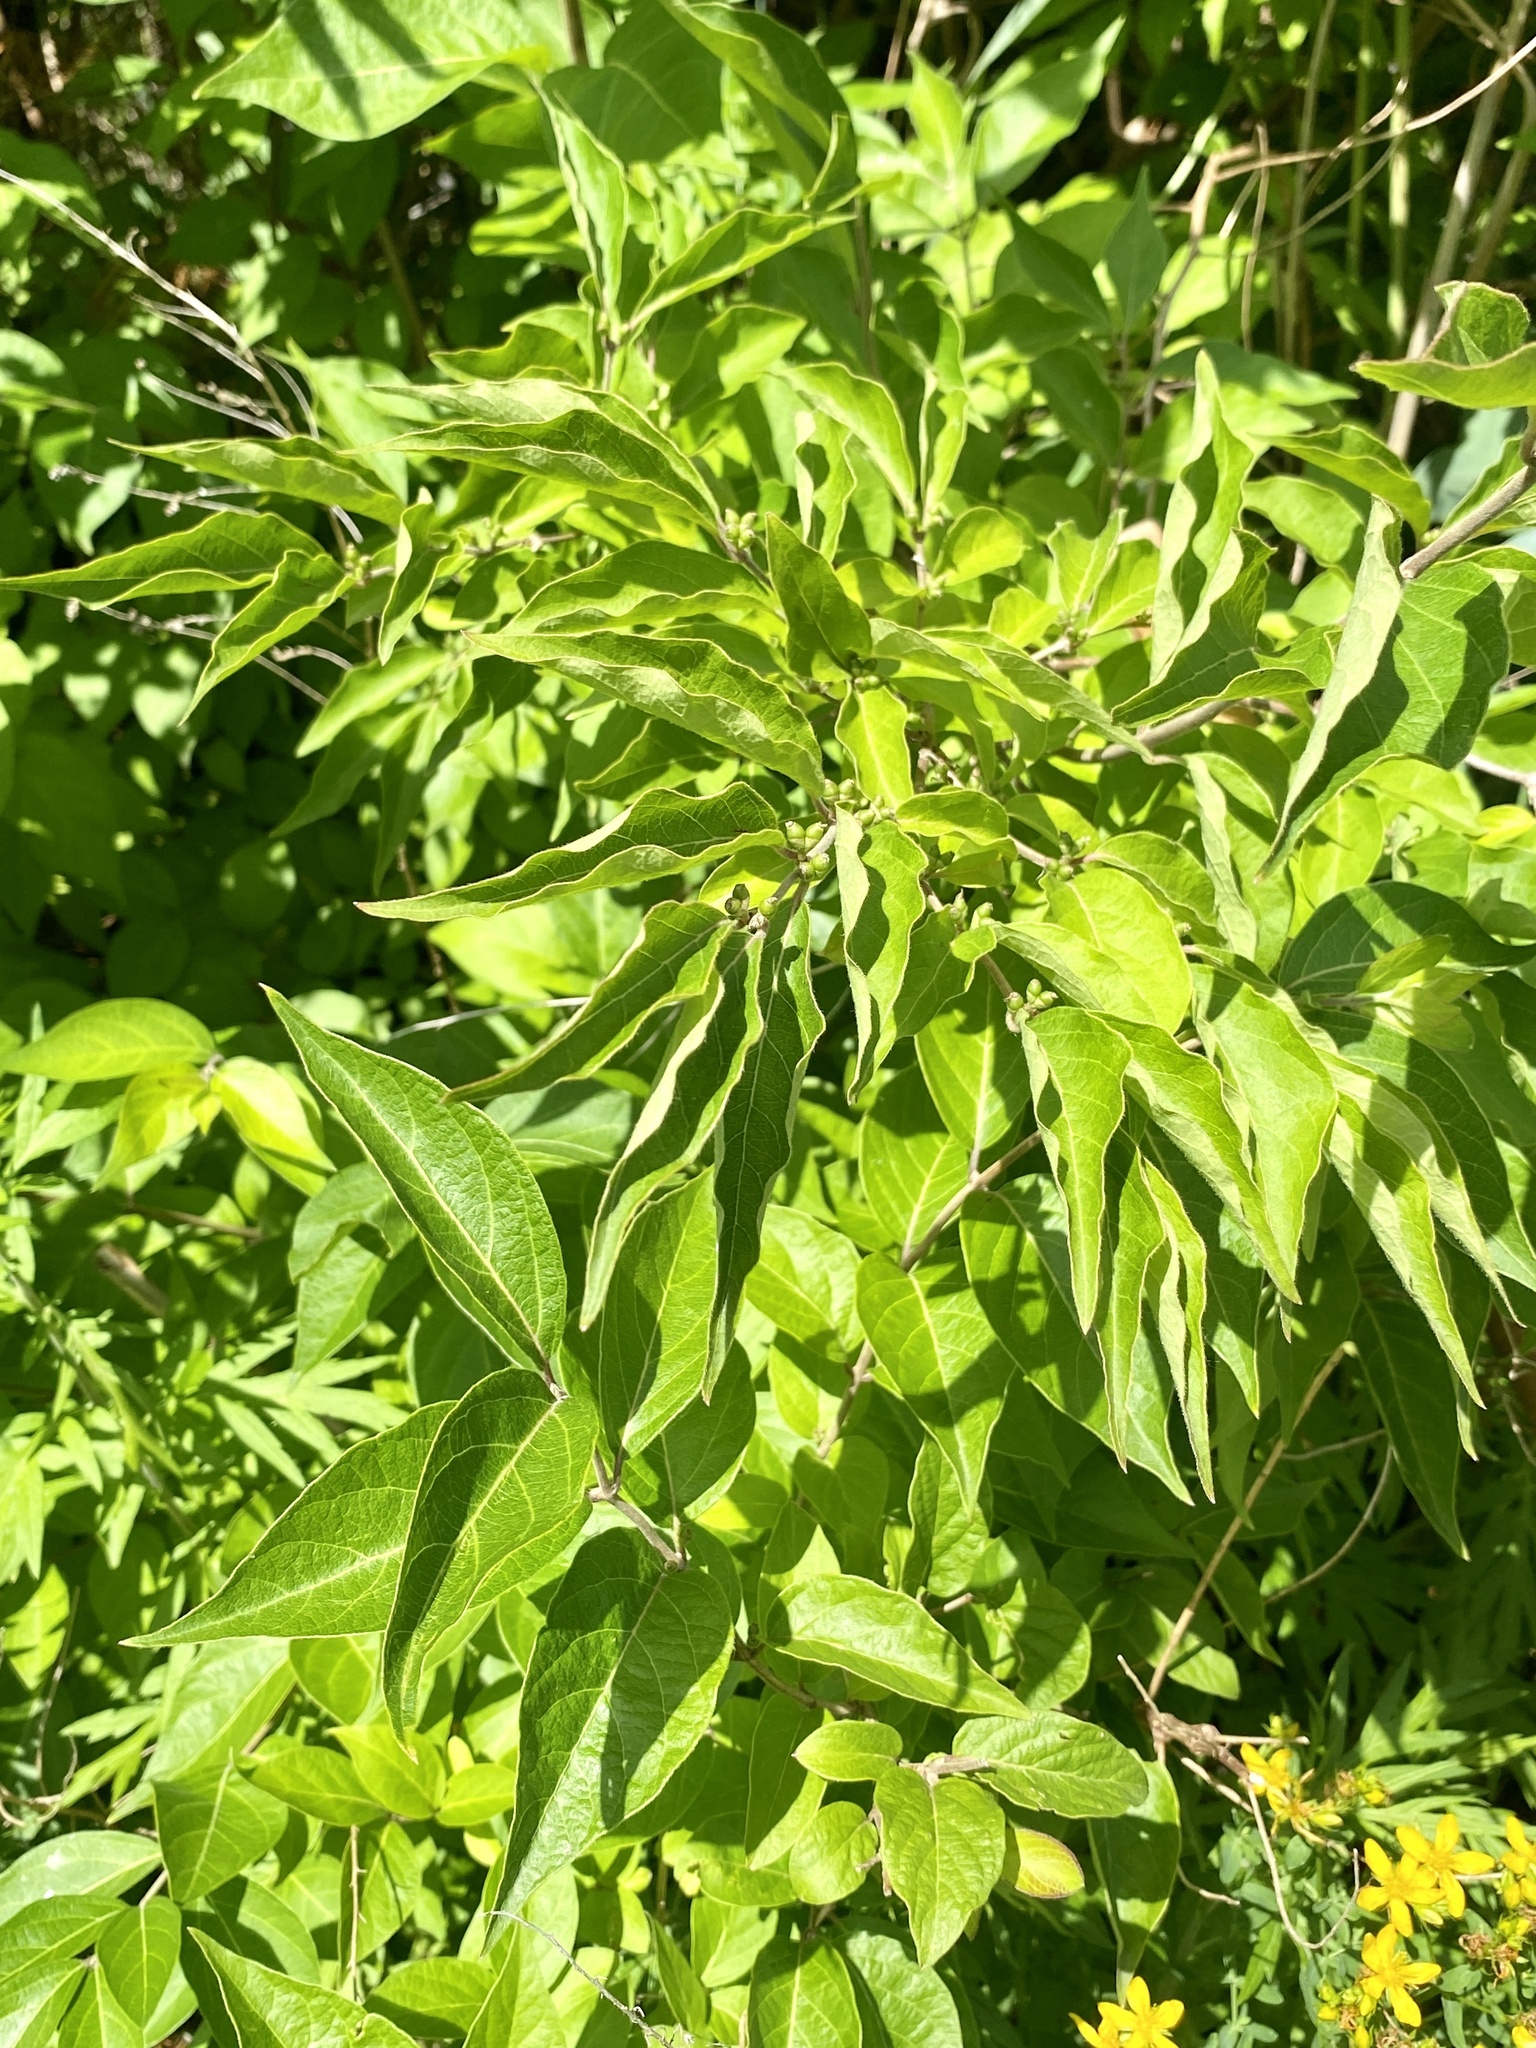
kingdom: Plantae
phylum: Tracheophyta
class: Magnoliopsida
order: Dipsacales
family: Caprifoliaceae
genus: Lonicera
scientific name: Lonicera maackii
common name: Amur honeysuckle
